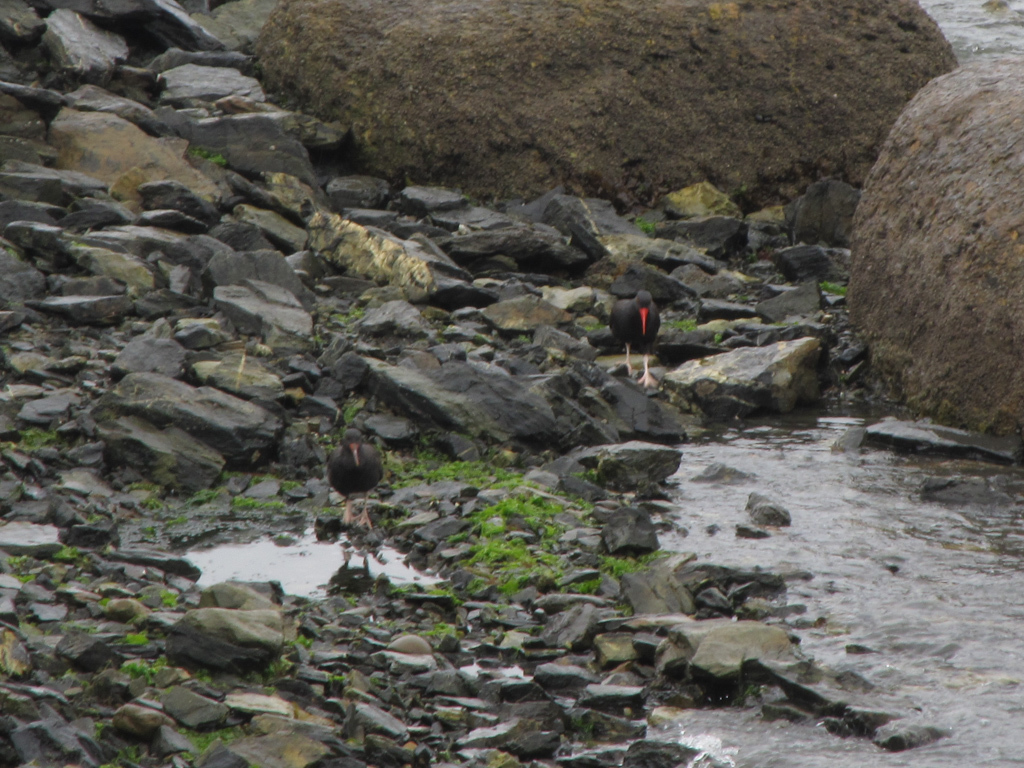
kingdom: Animalia
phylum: Chordata
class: Aves
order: Charadriiformes
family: Haematopodidae
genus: Haematopus
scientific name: Haematopus ater
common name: Blackish oystercatcher
